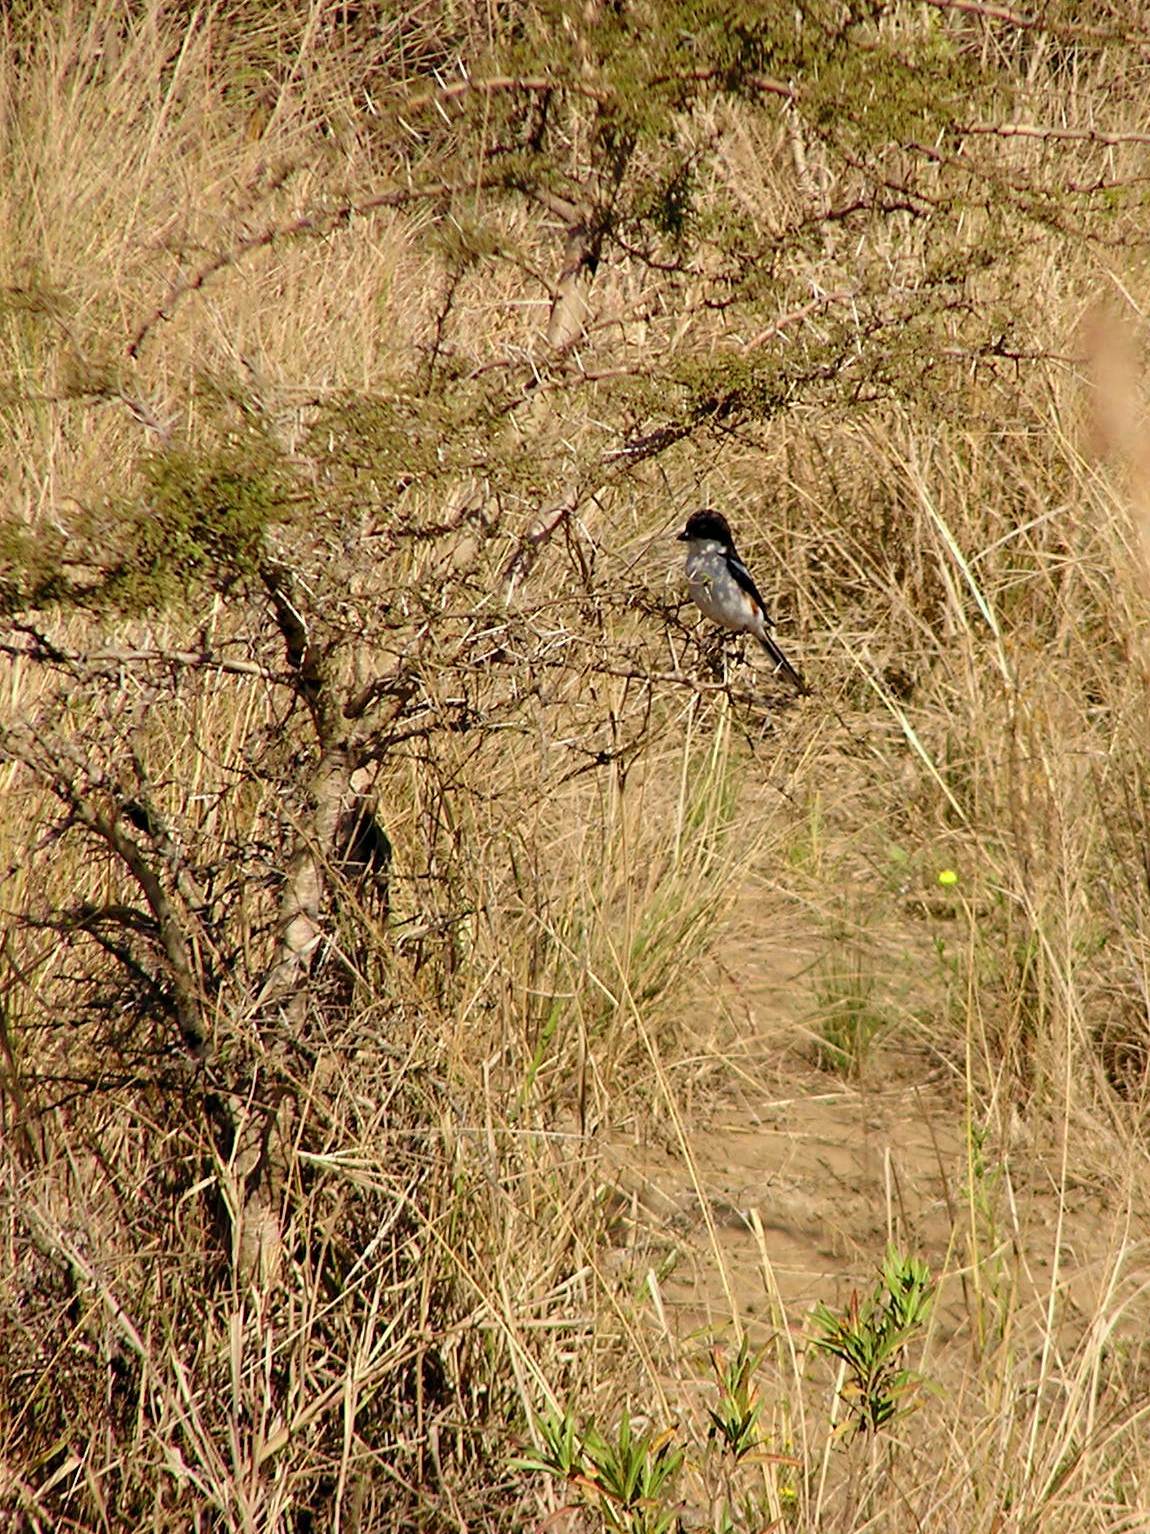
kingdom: Animalia
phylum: Chordata
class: Aves
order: Passeriformes
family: Laniidae
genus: Lanius
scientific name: Lanius collaris
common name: Southern fiscal
